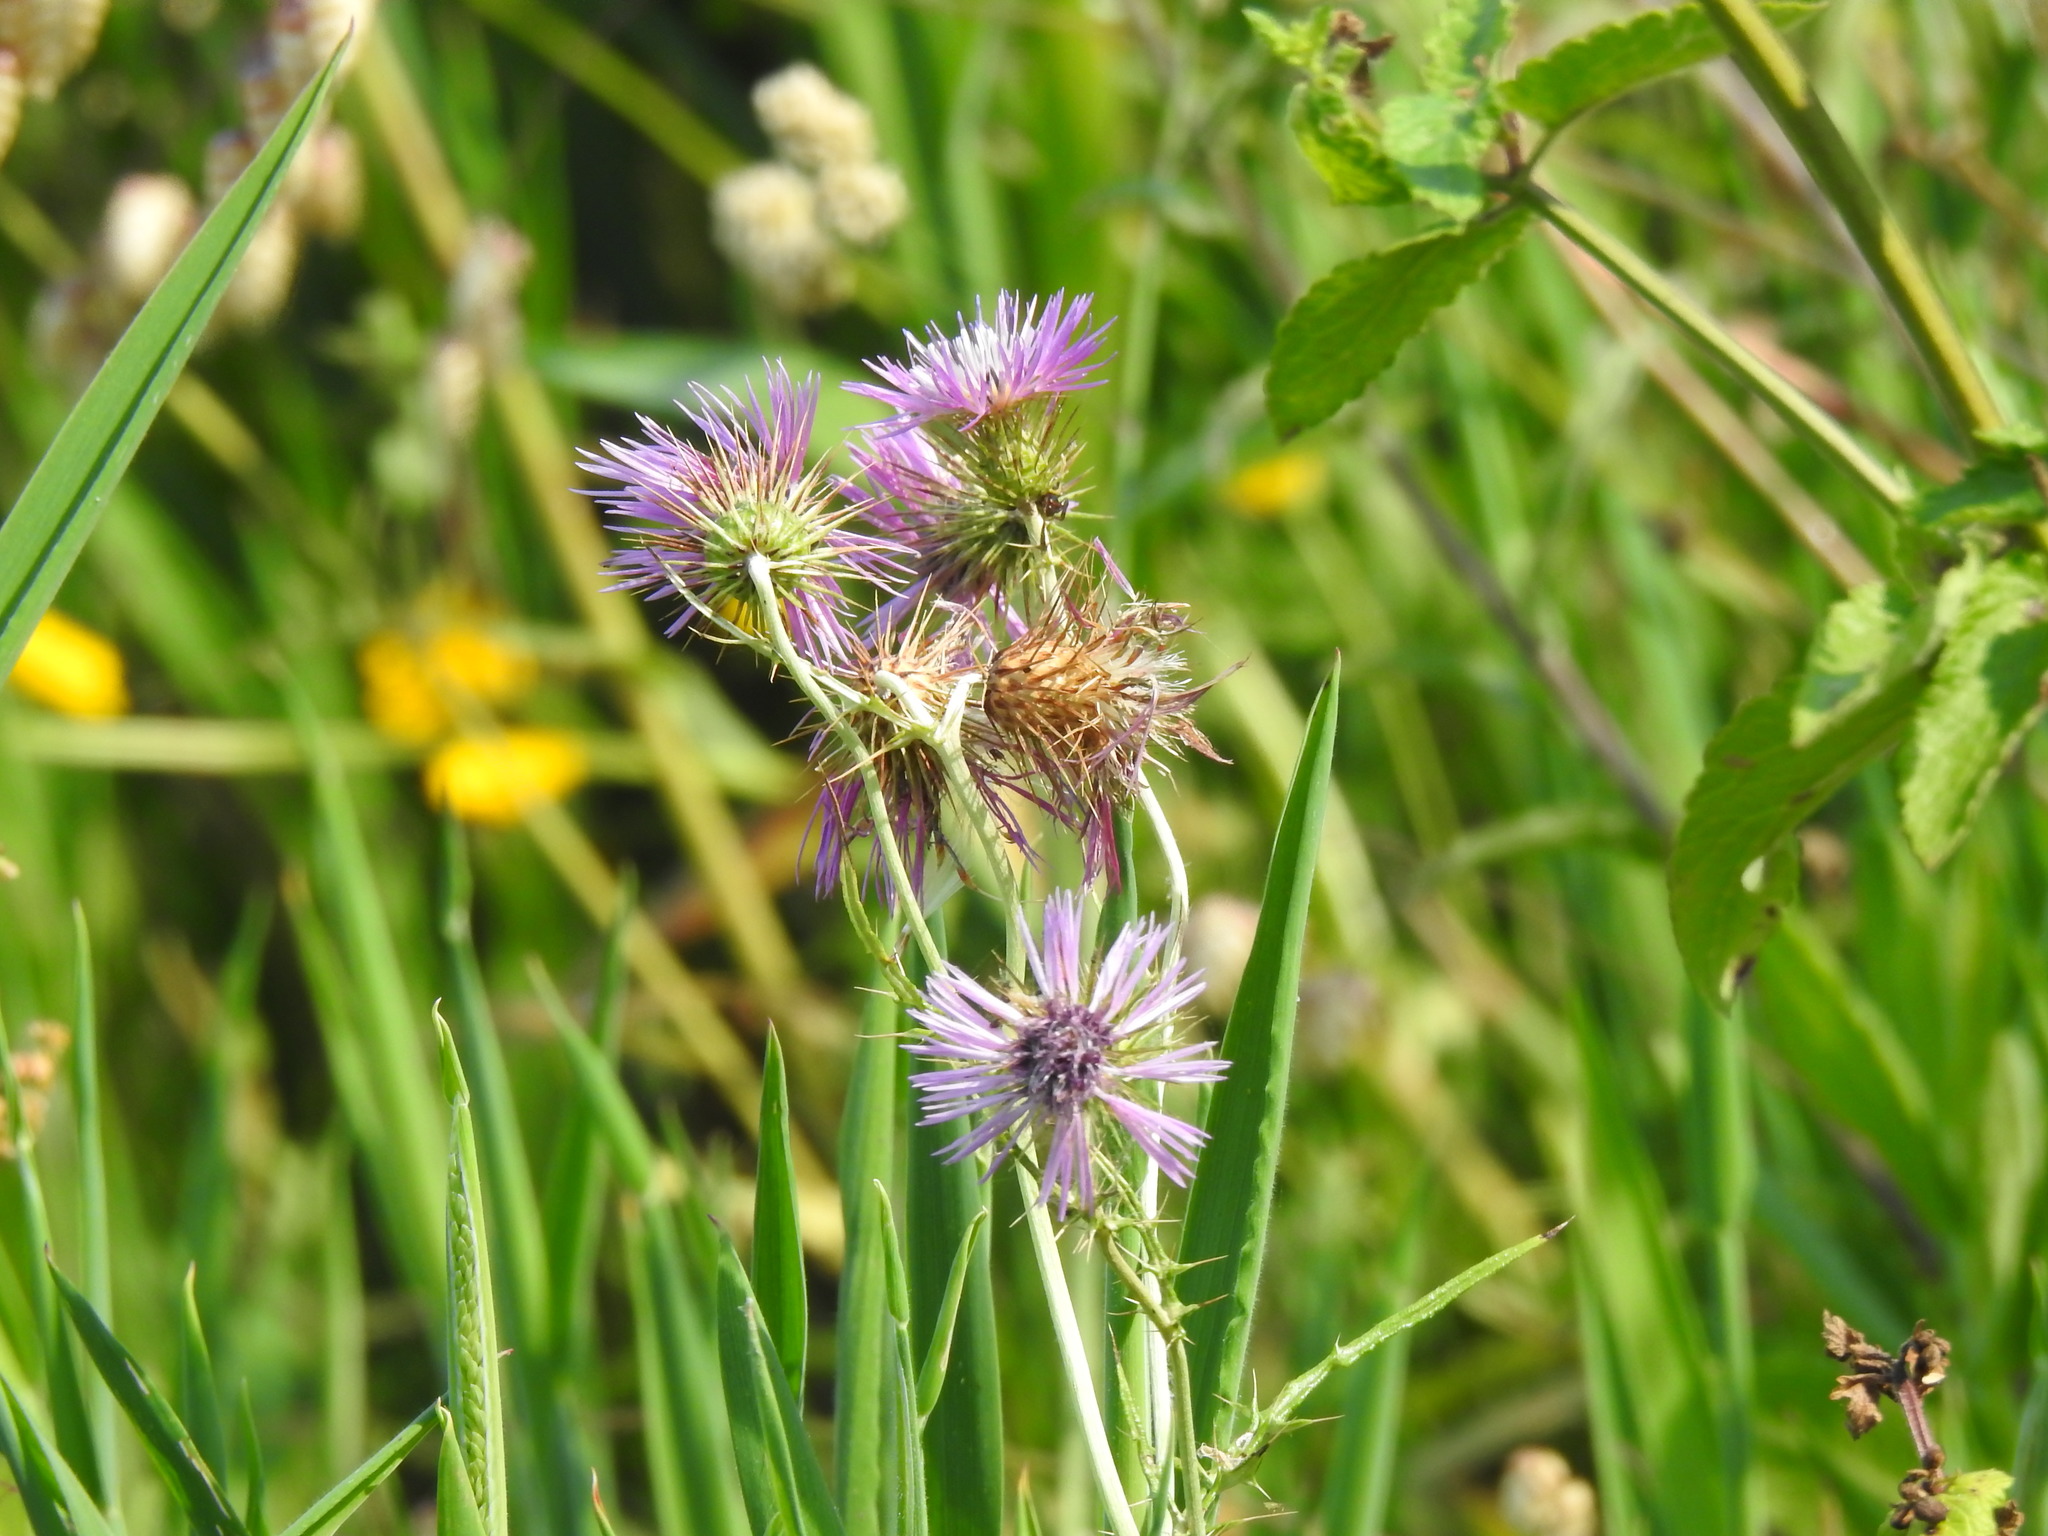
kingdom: Plantae
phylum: Tracheophyta
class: Magnoliopsida
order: Asterales
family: Asteraceae
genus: Galactites
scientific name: Galactites tomentosa
